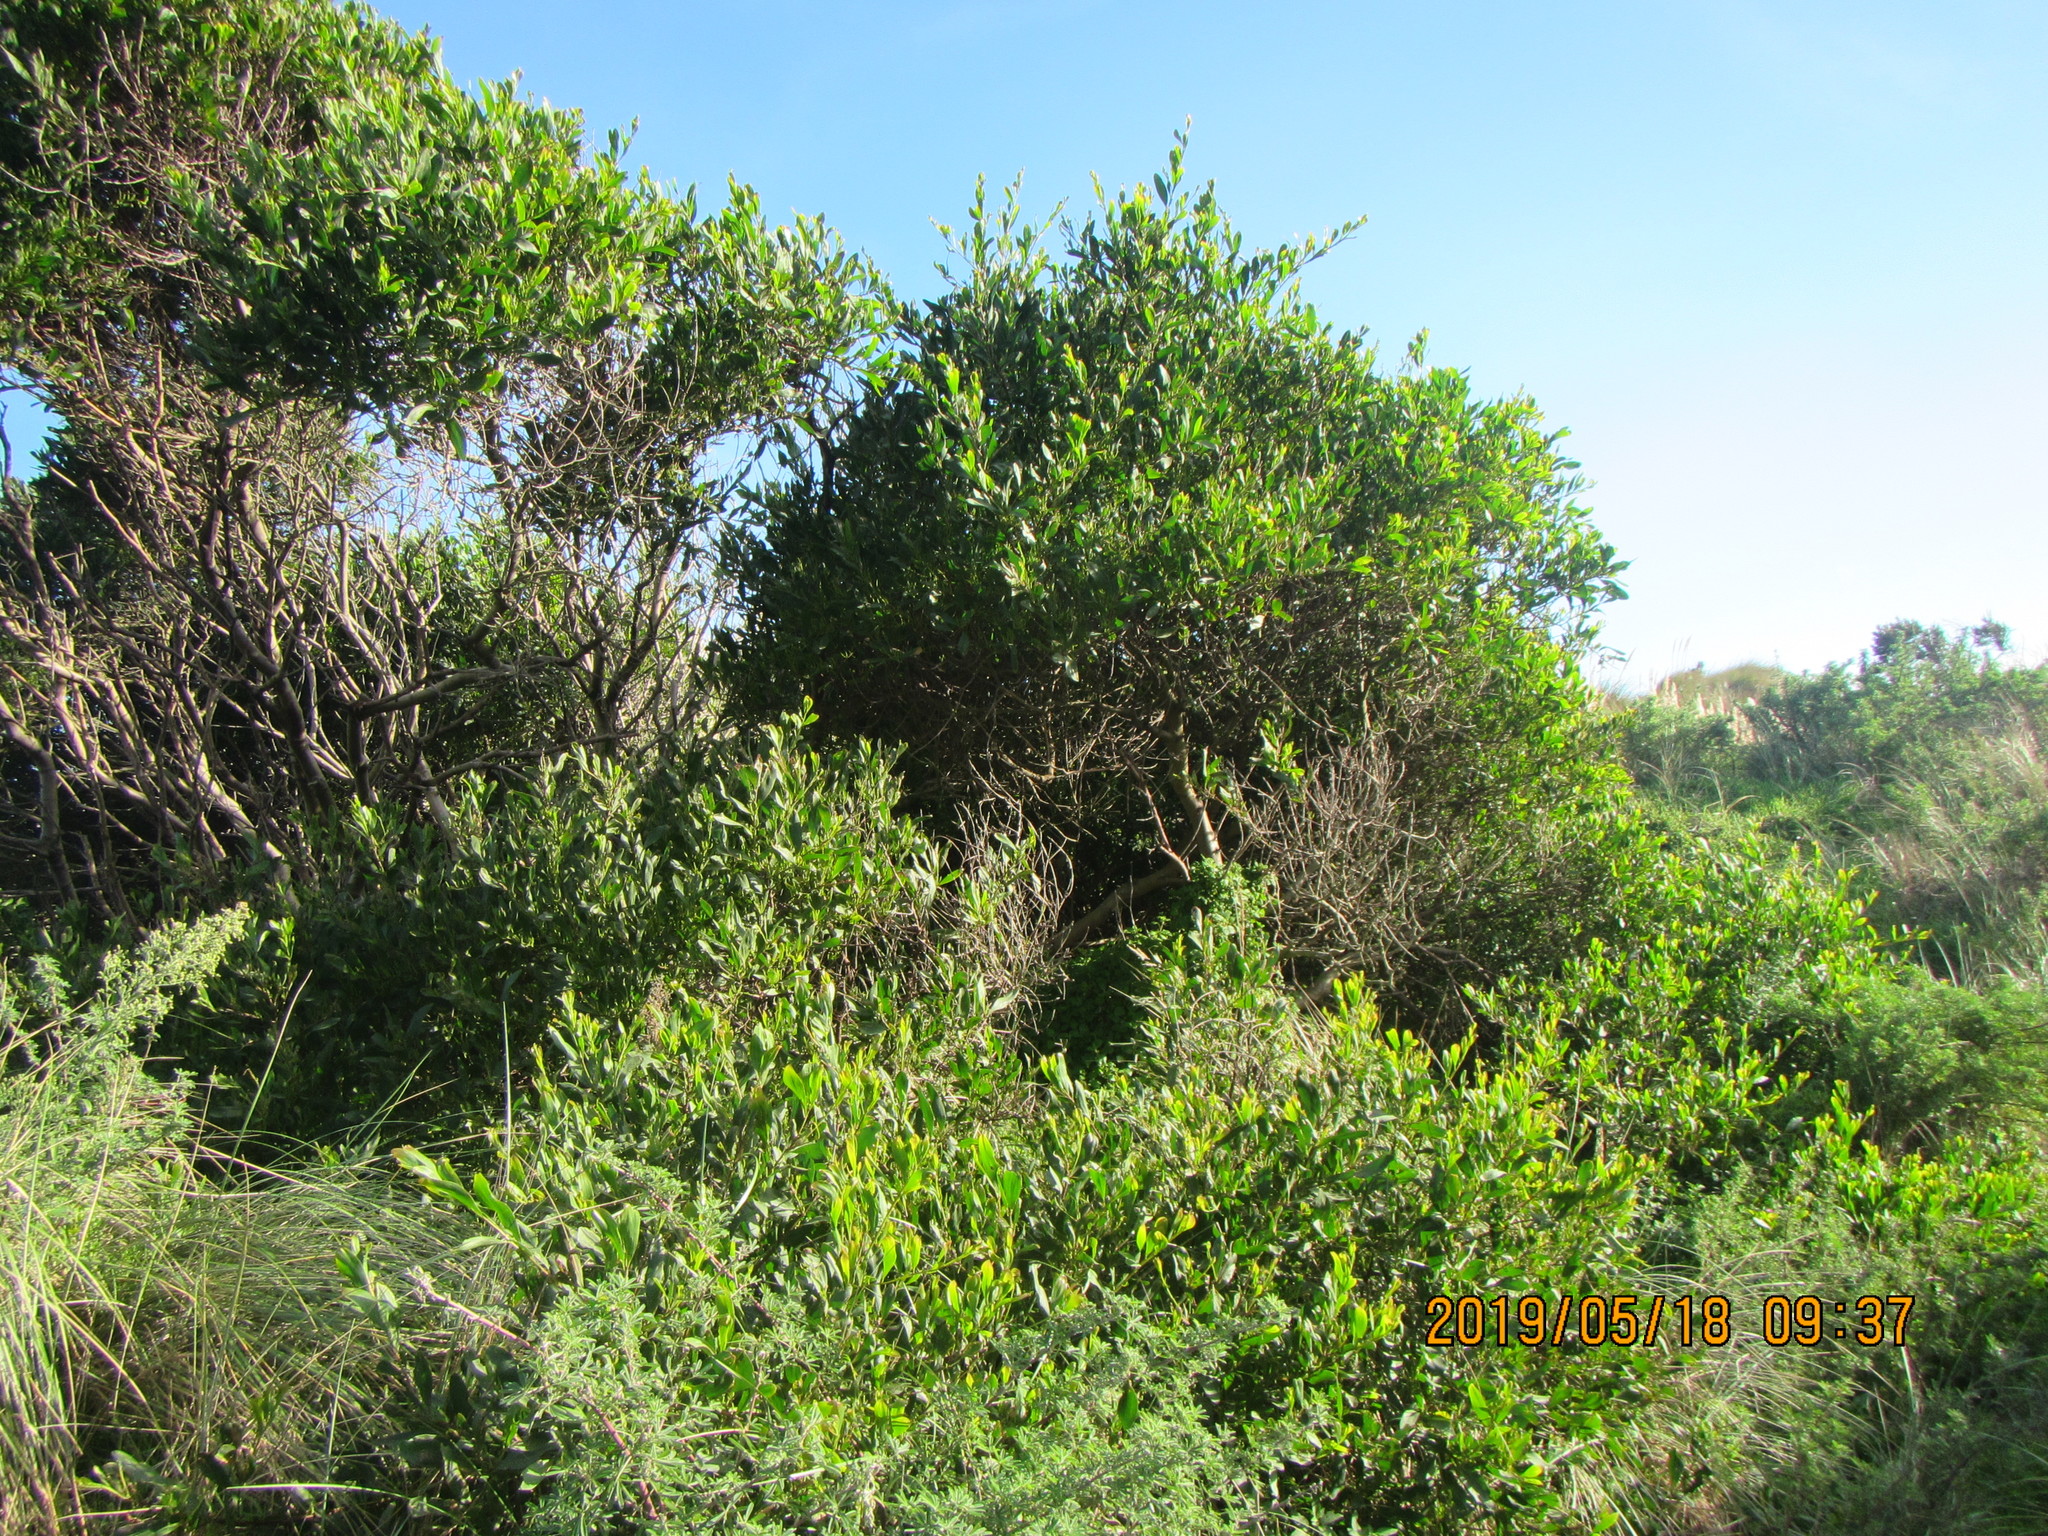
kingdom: Plantae
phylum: Tracheophyta
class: Magnoliopsida
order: Fabales
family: Fabaceae
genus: Acacia
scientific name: Acacia longifolia
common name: Sydney golden wattle
